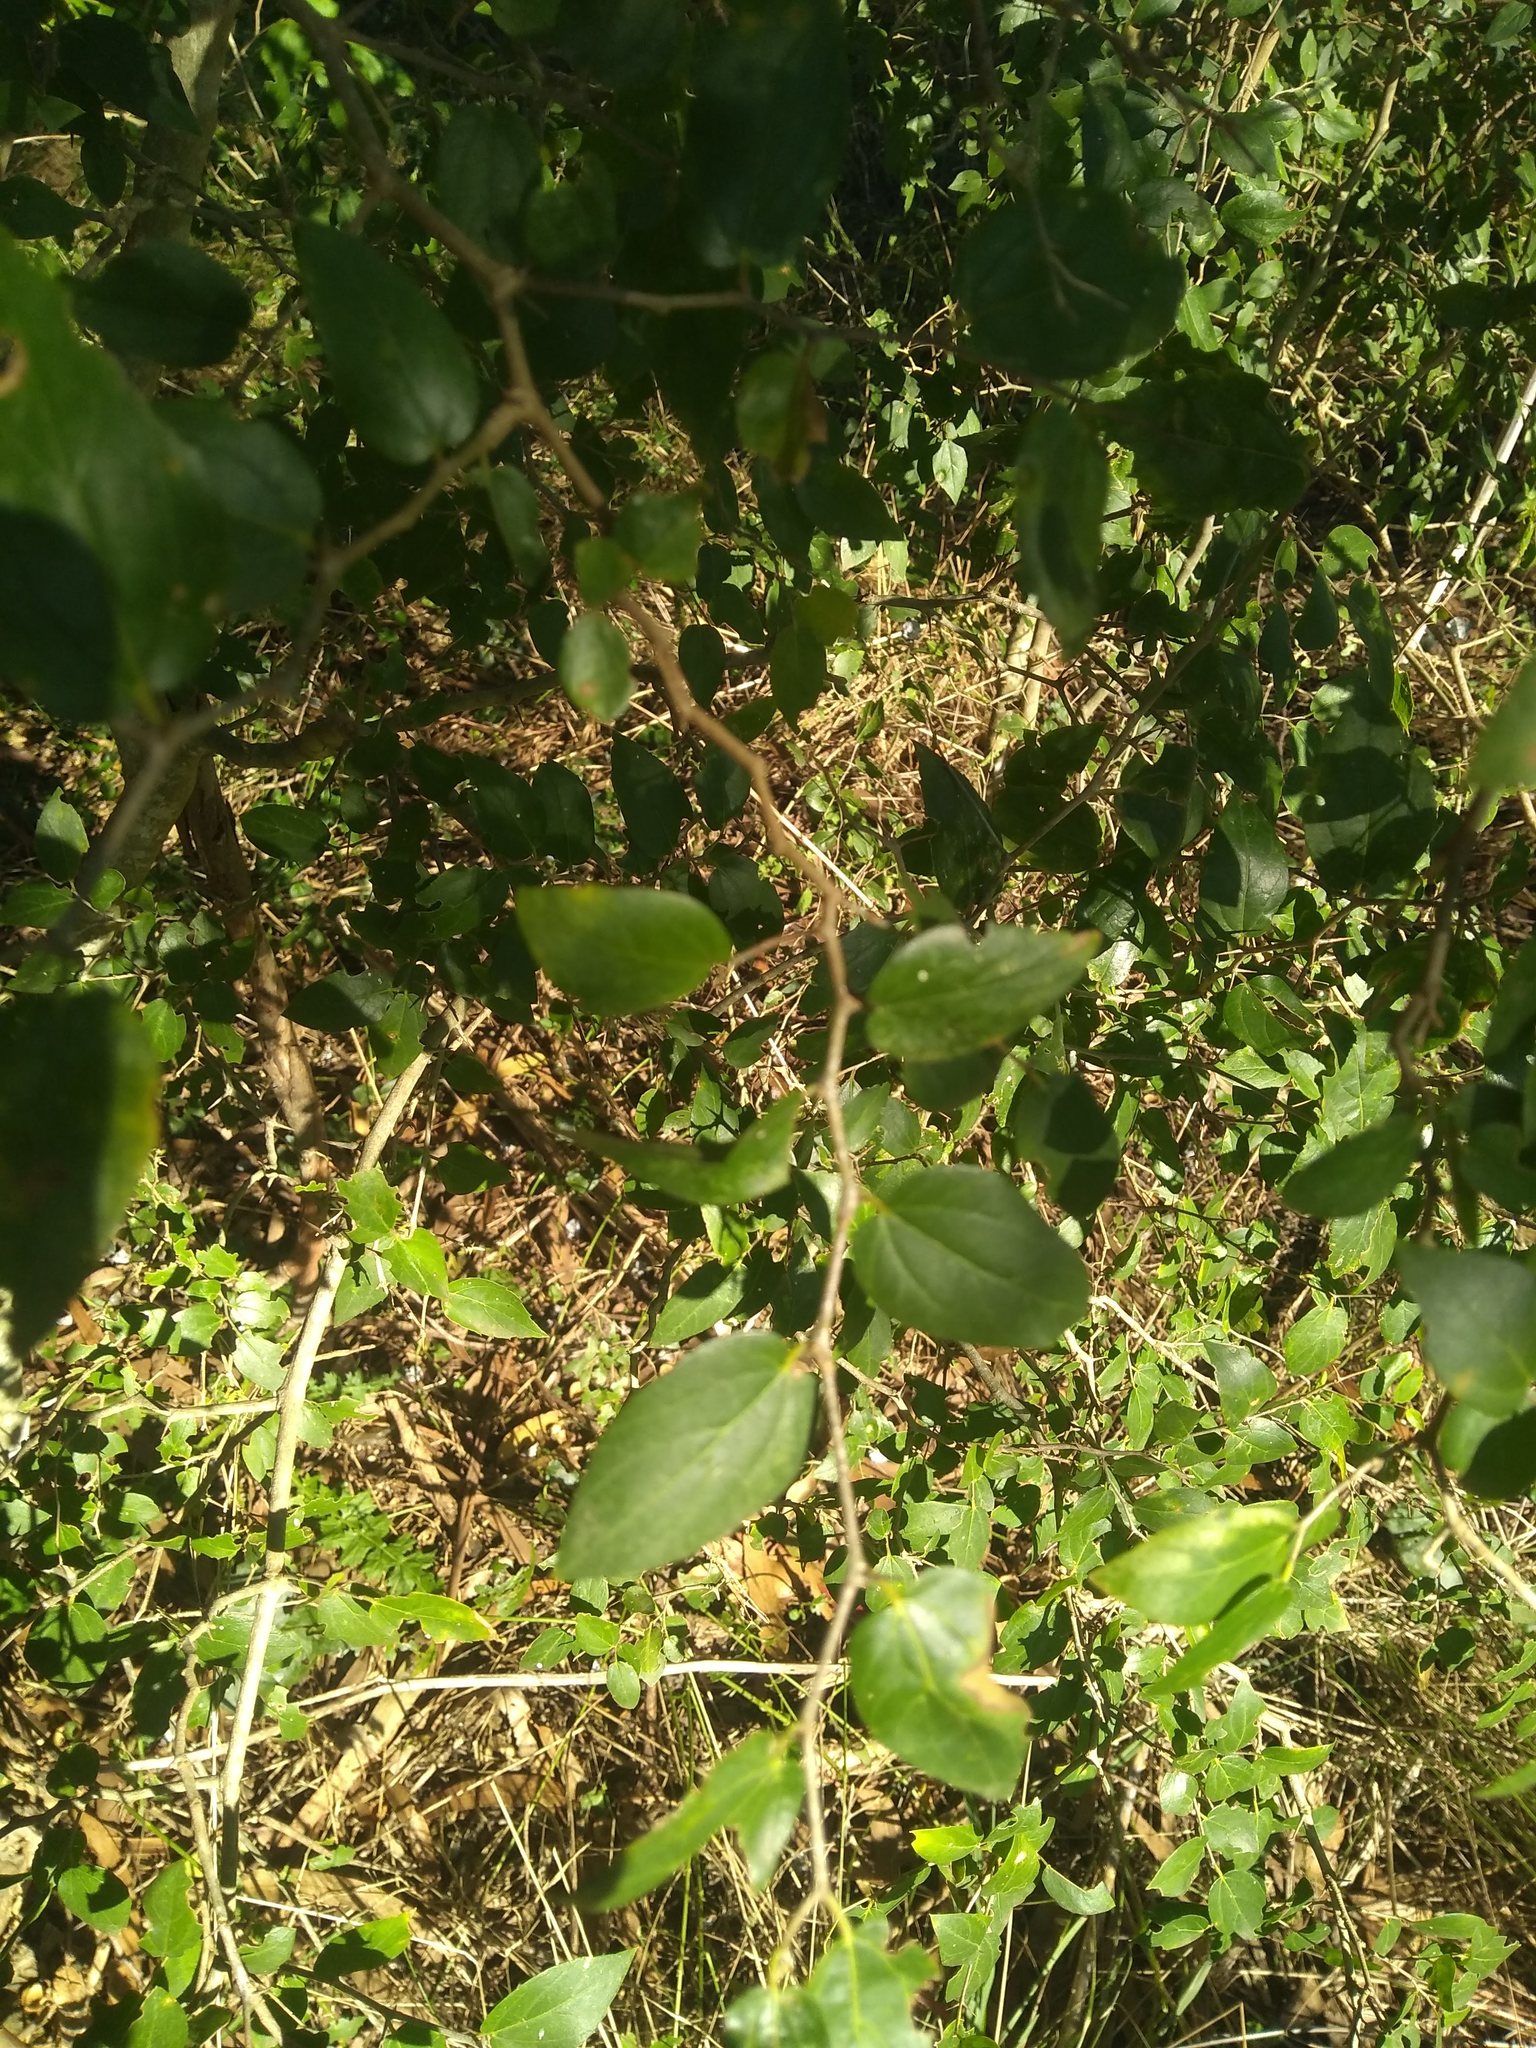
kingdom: Plantae
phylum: Tracheophyta
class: Magnoliopsida
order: Rosales
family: Cannabaceae
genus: Celtis
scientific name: Celtis tala
